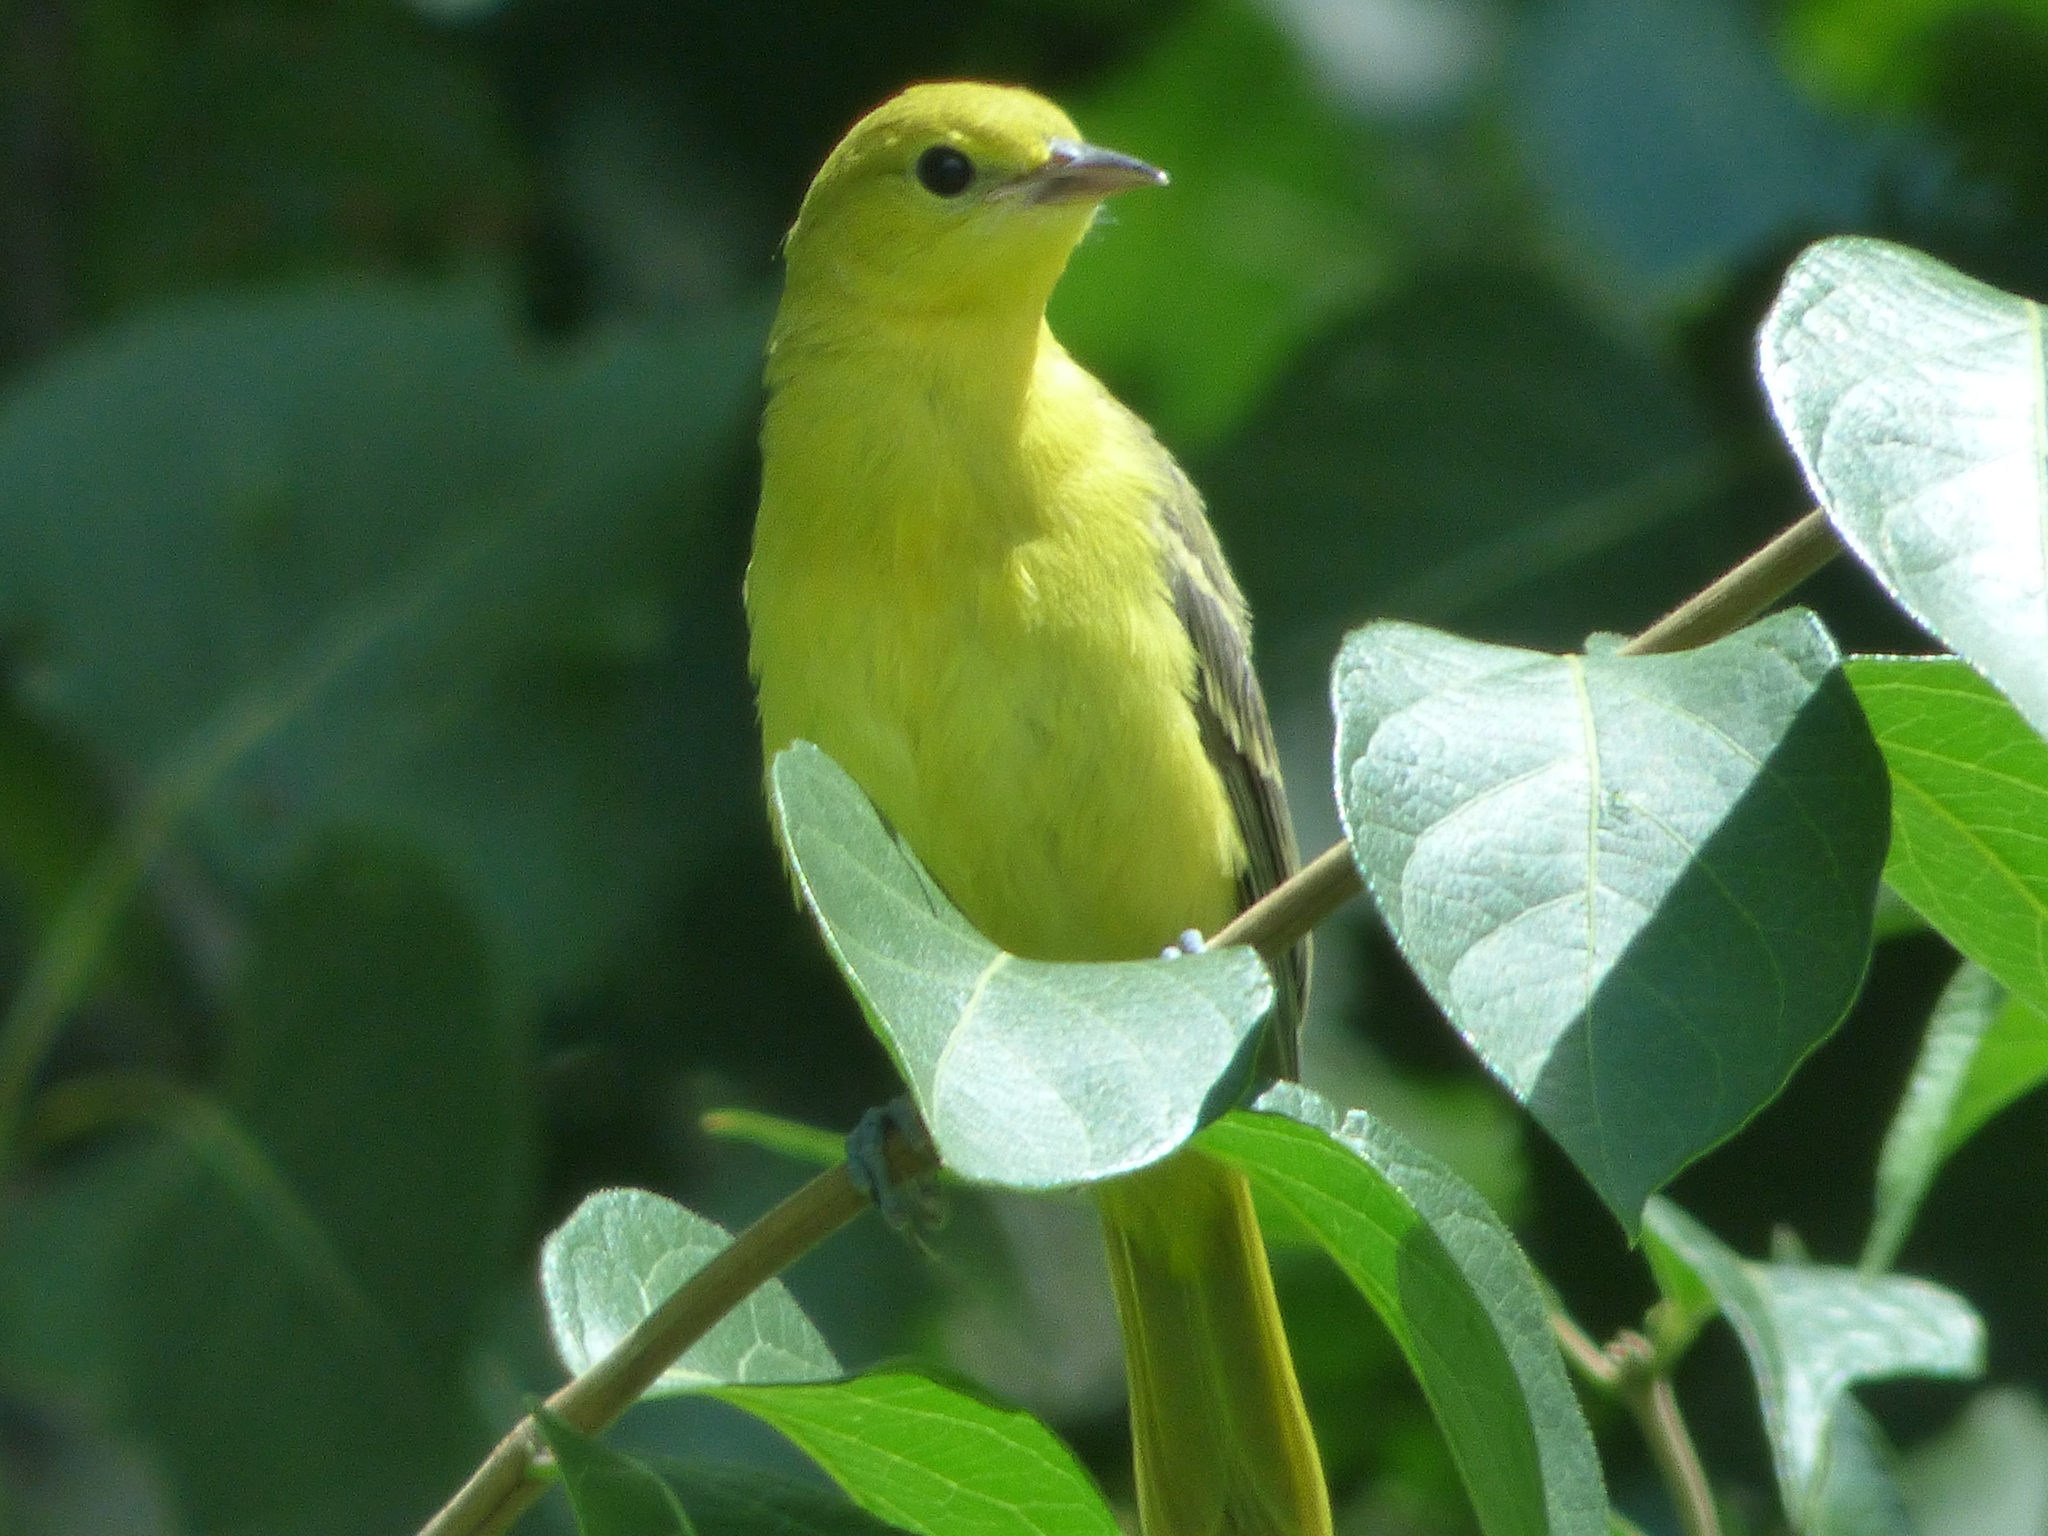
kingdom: Animalia
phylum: Chordata
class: Aves
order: Passeriformes
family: Icteridae
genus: Icterus
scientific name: Icterus spurius
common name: Orchard oriole
